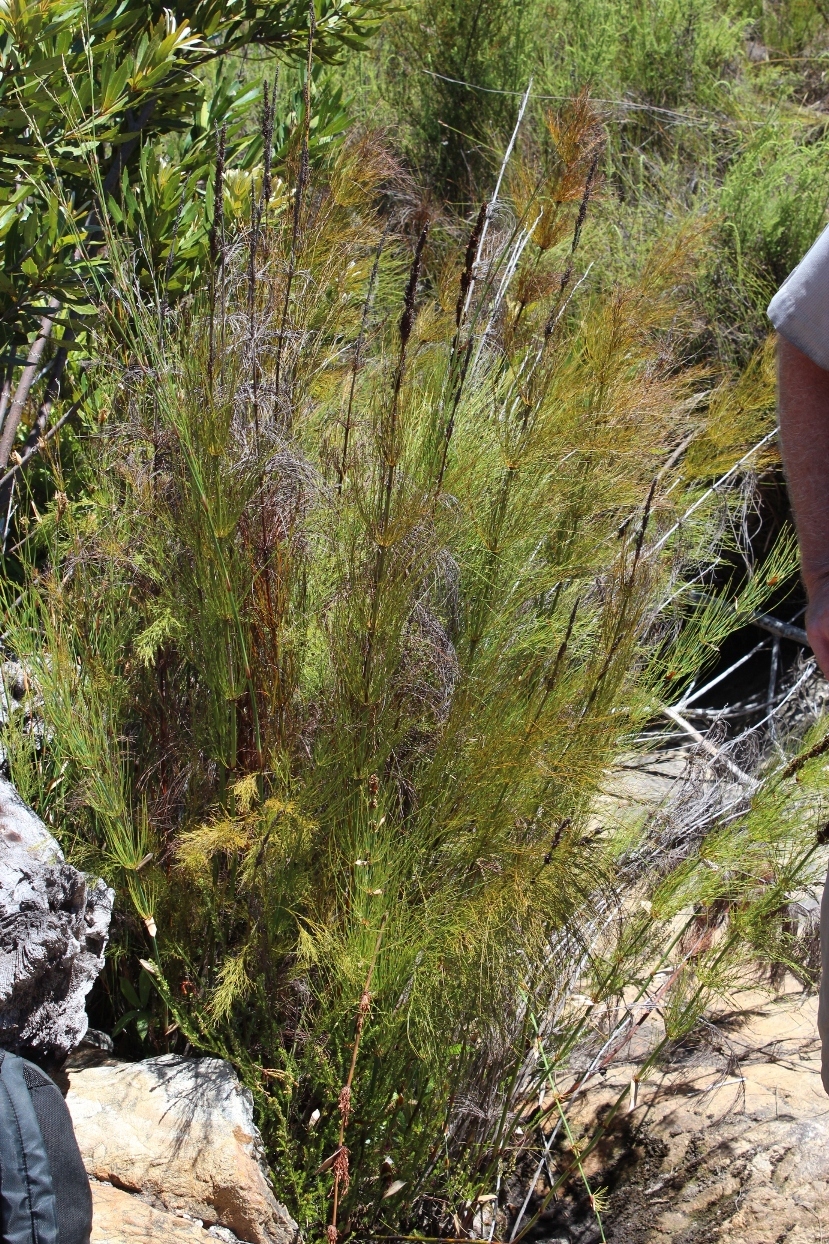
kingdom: Plantae
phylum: Tracheophyta
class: Liliopsida
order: Poales
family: Restionaceae
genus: Elegia
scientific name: Elegia capensis
